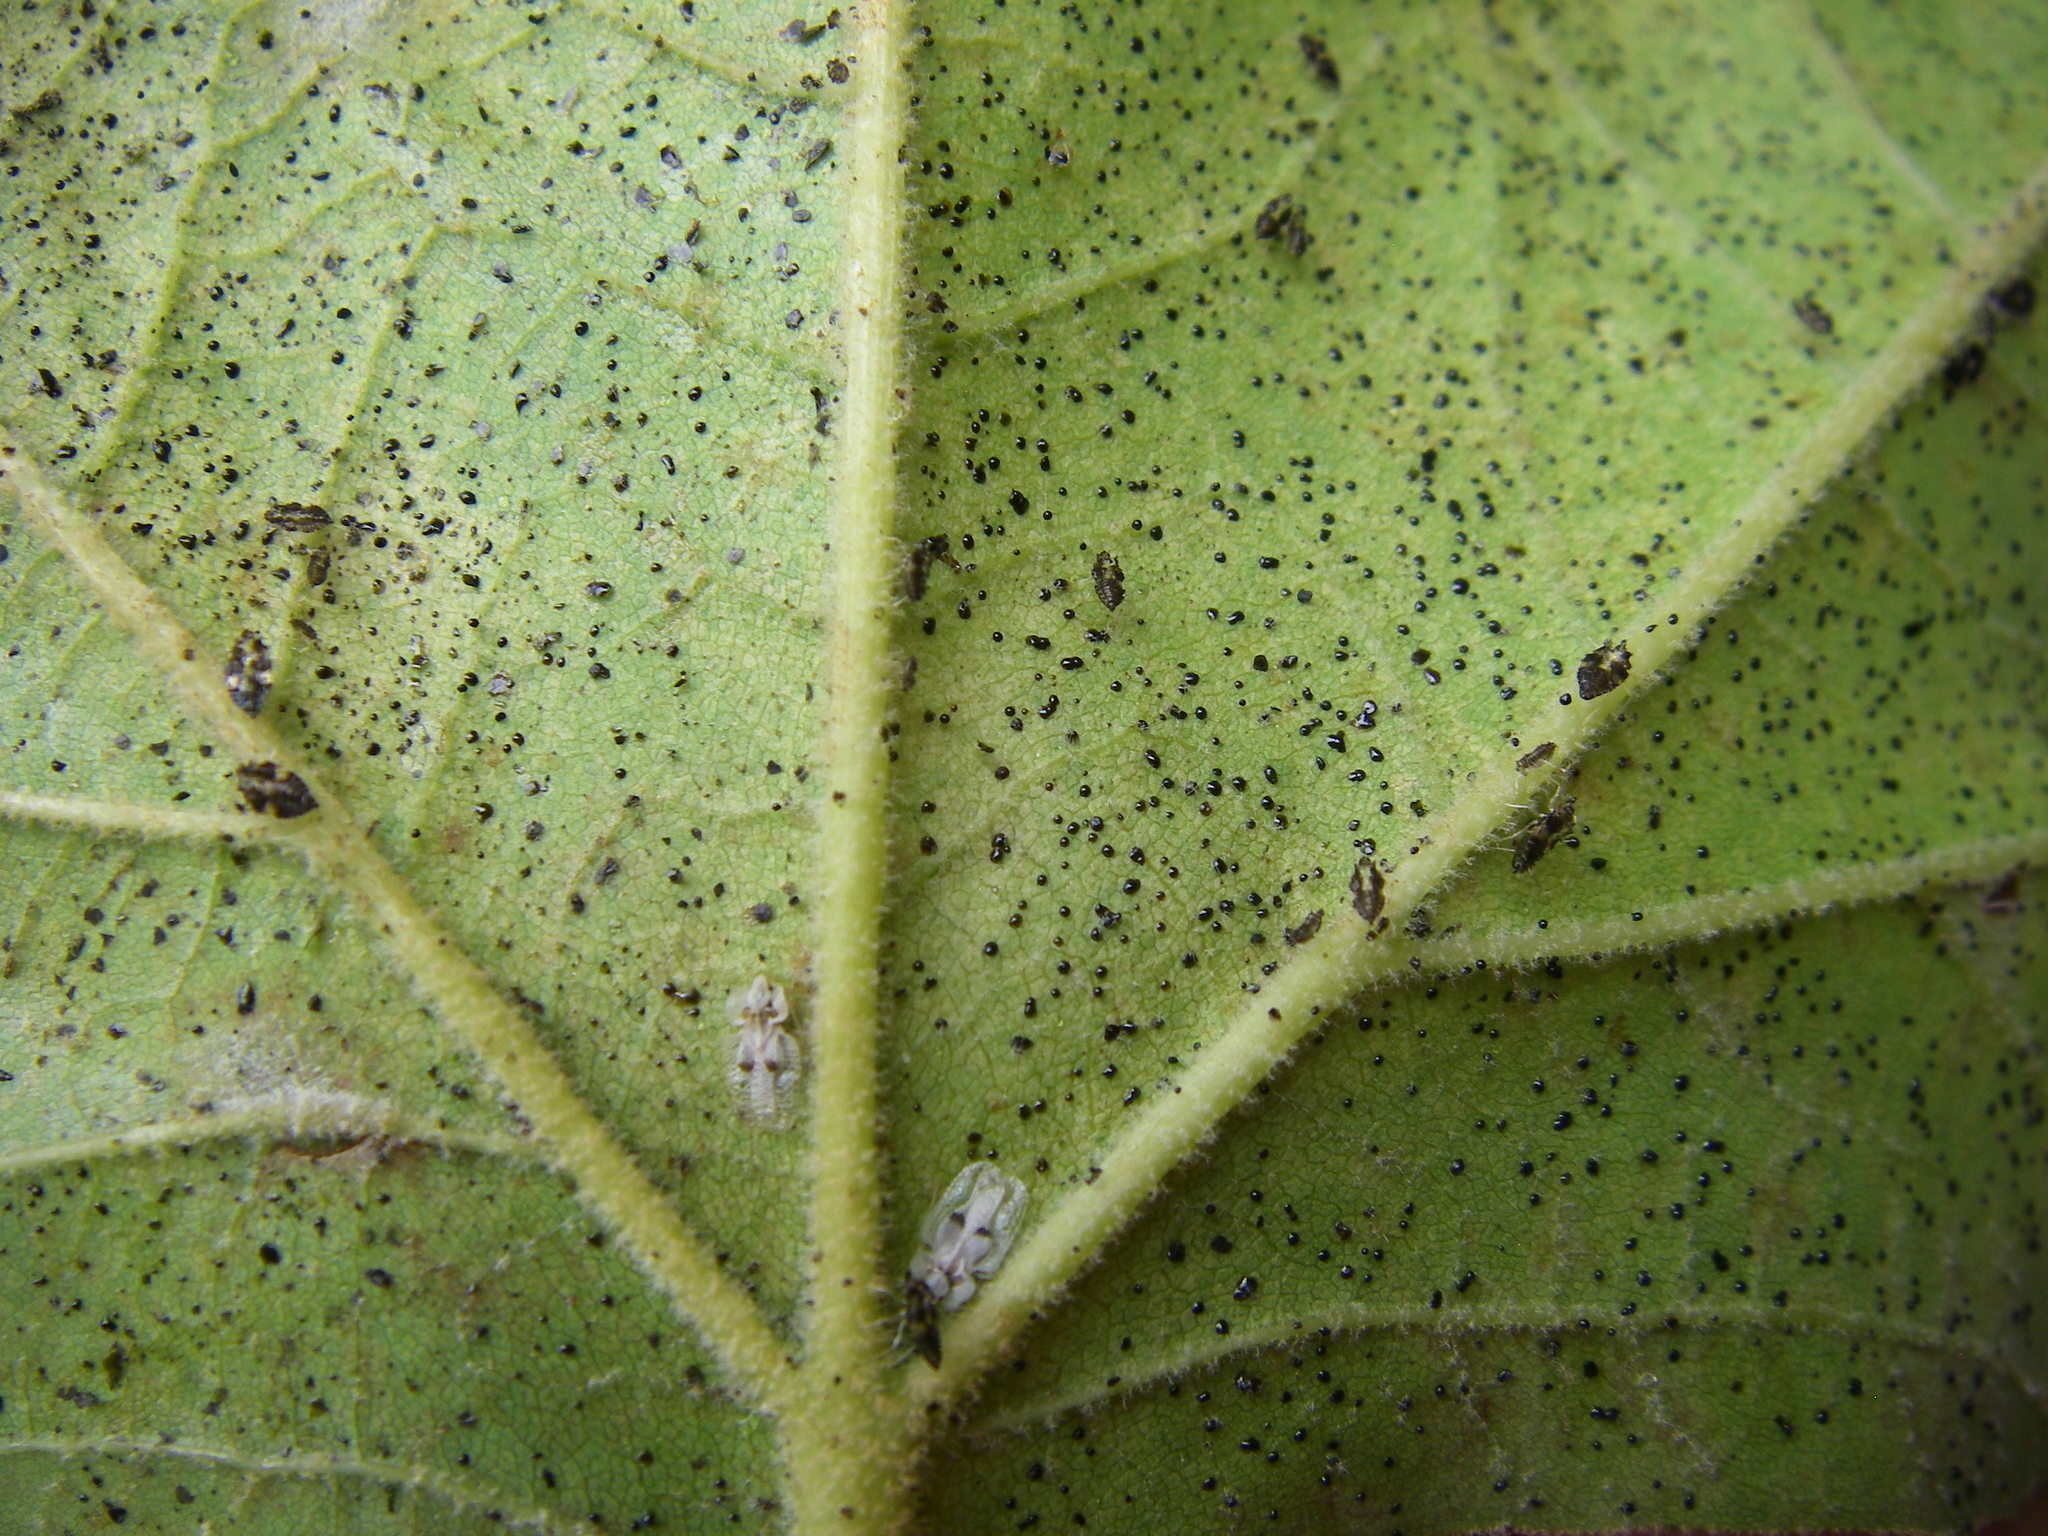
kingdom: Animalia
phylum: Arthropoda
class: Insecta
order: Hemiptera
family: Tingidae
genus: Corythucha
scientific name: Corythucha ciliata
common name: Sycamore lace bug
